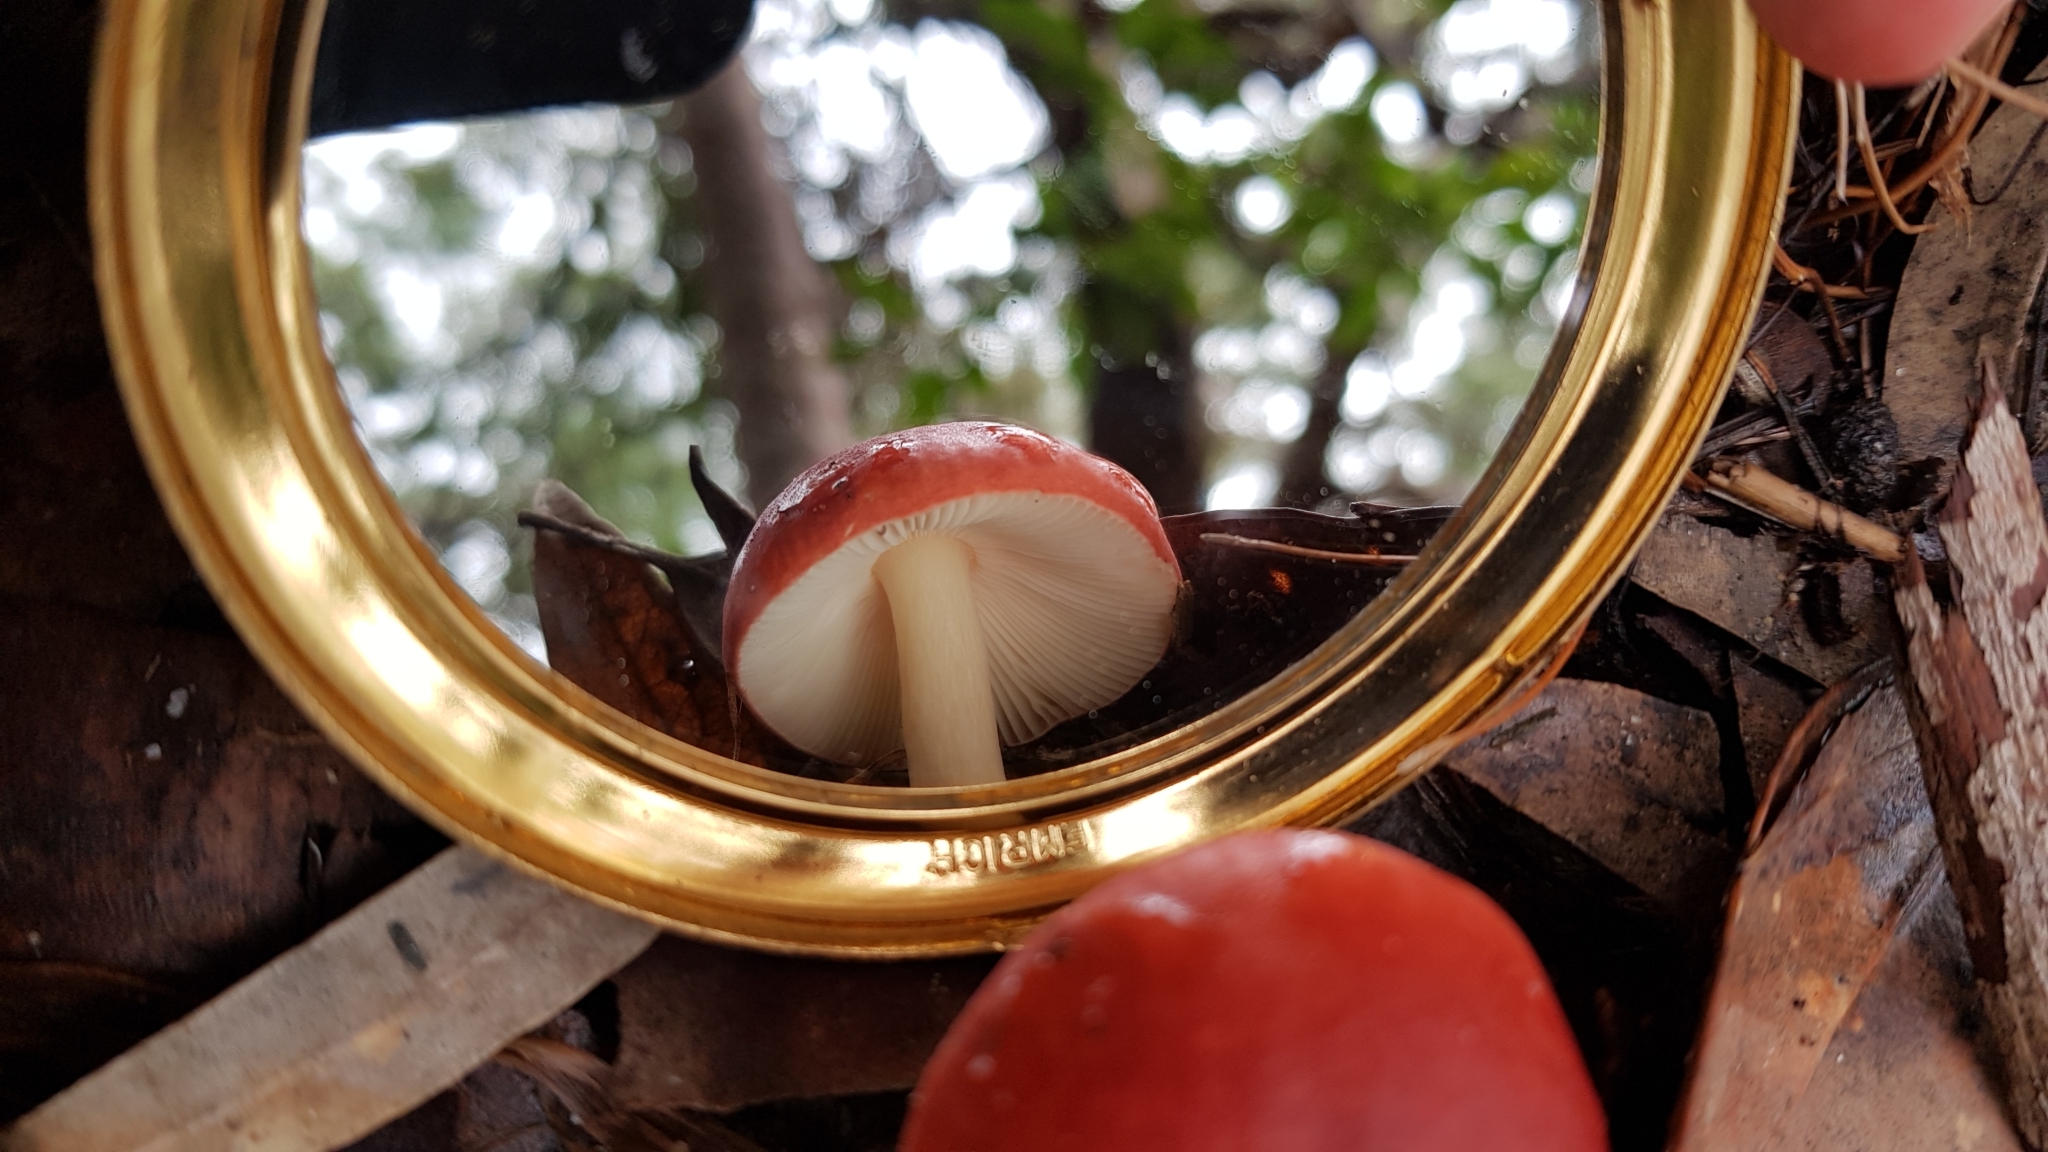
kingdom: Fungi
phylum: Basidiomycota
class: Agaricomycetes
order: Russulales
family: Russulaceae
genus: Russula
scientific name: Russula persanguinea
